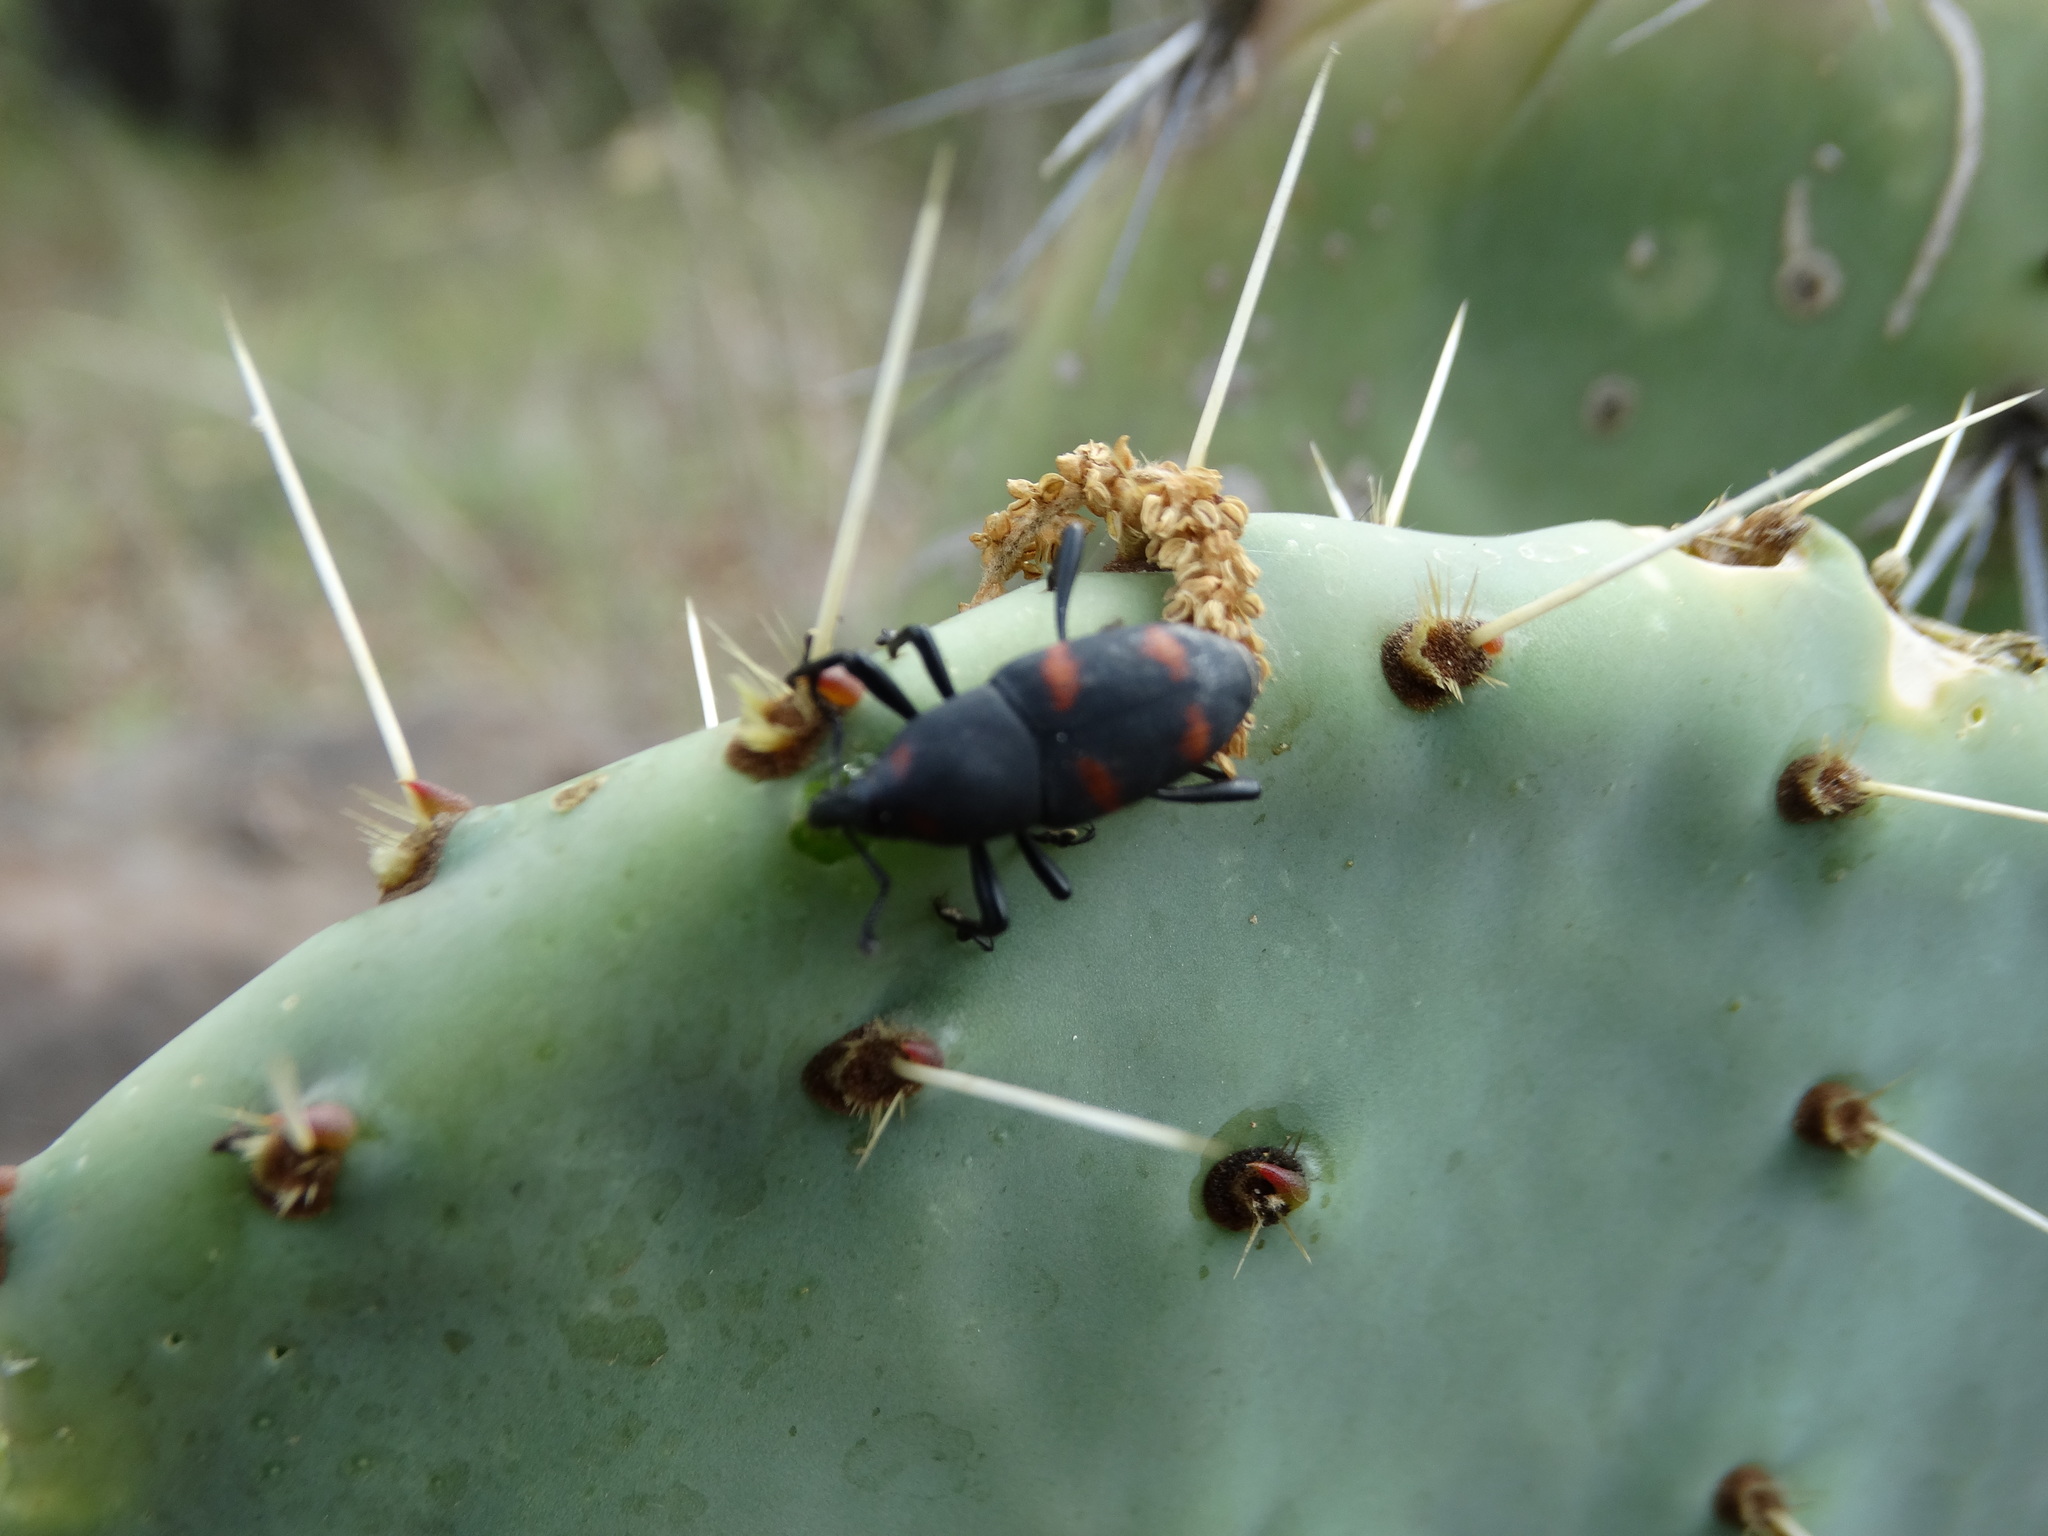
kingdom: Animalia
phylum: Arthropoda
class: Insecta
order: Coleoptera
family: Dryophthoridae
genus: Cactophagus
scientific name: Cactophagus spinolae
